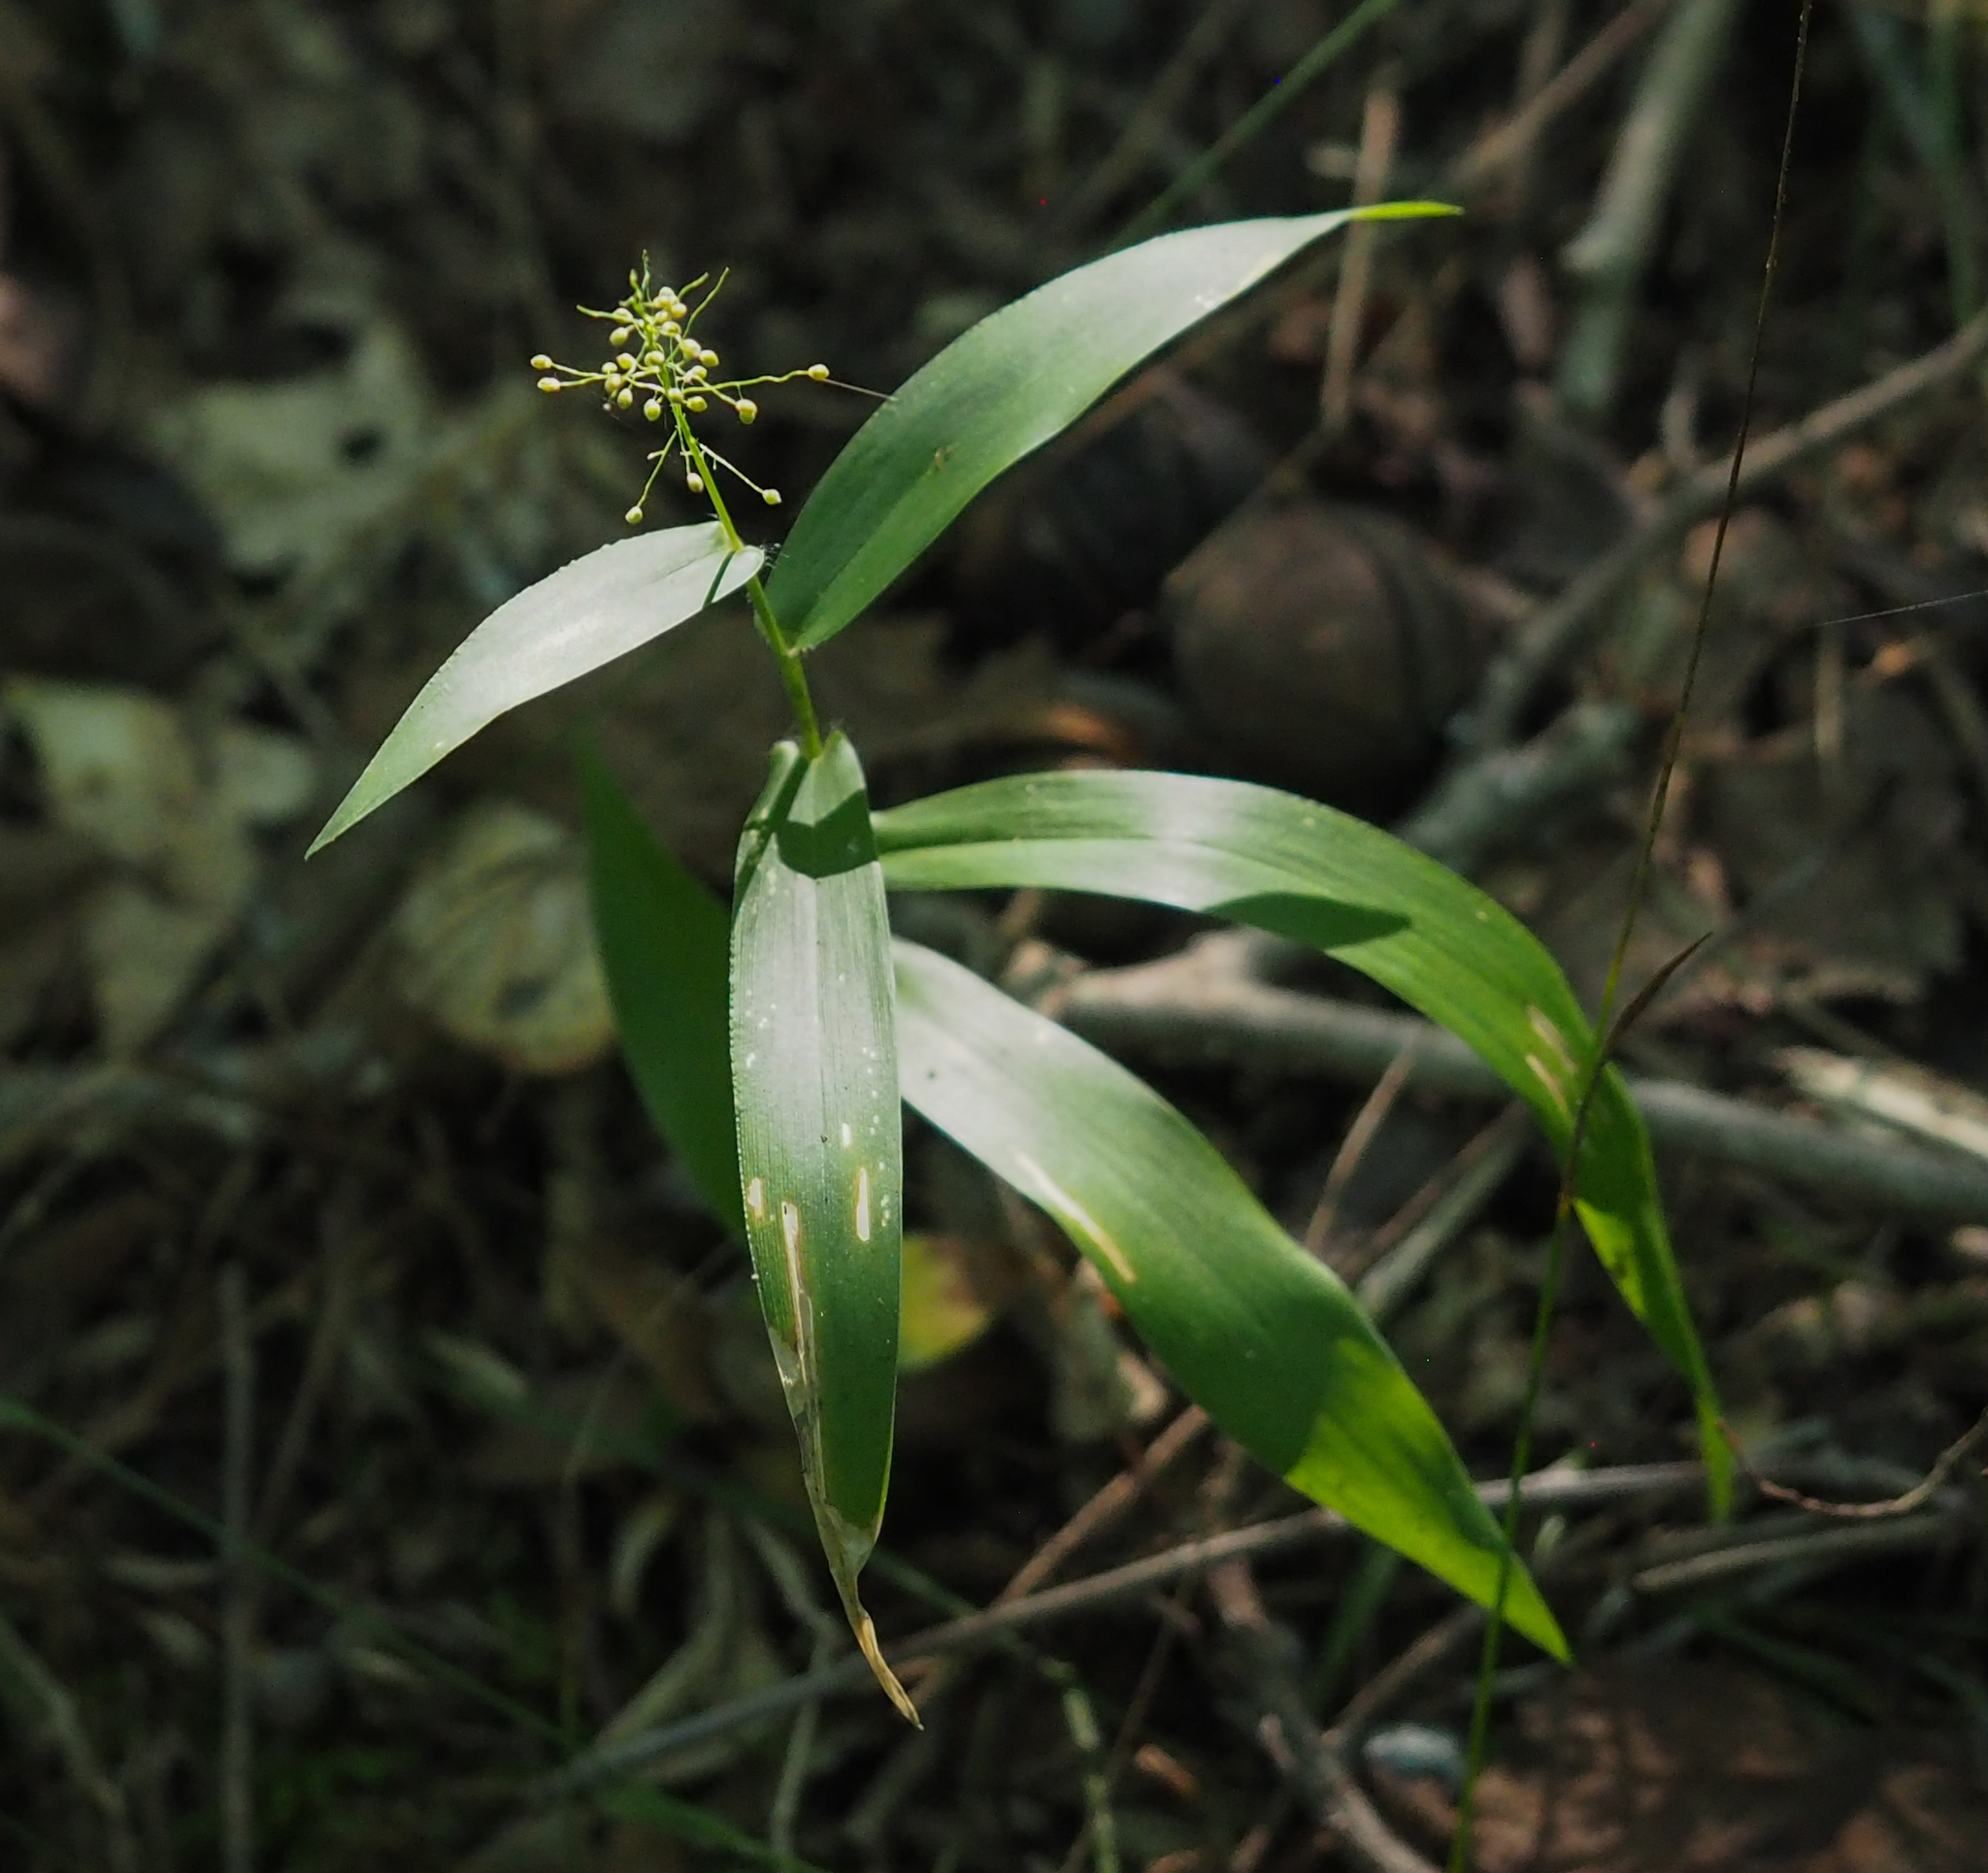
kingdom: Plantae
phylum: Tracheophyta
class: Liliopsida
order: Poales
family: Poaceae
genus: Dichanthelium
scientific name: Dichanthelium clandestinum
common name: Deer-tongue grass
